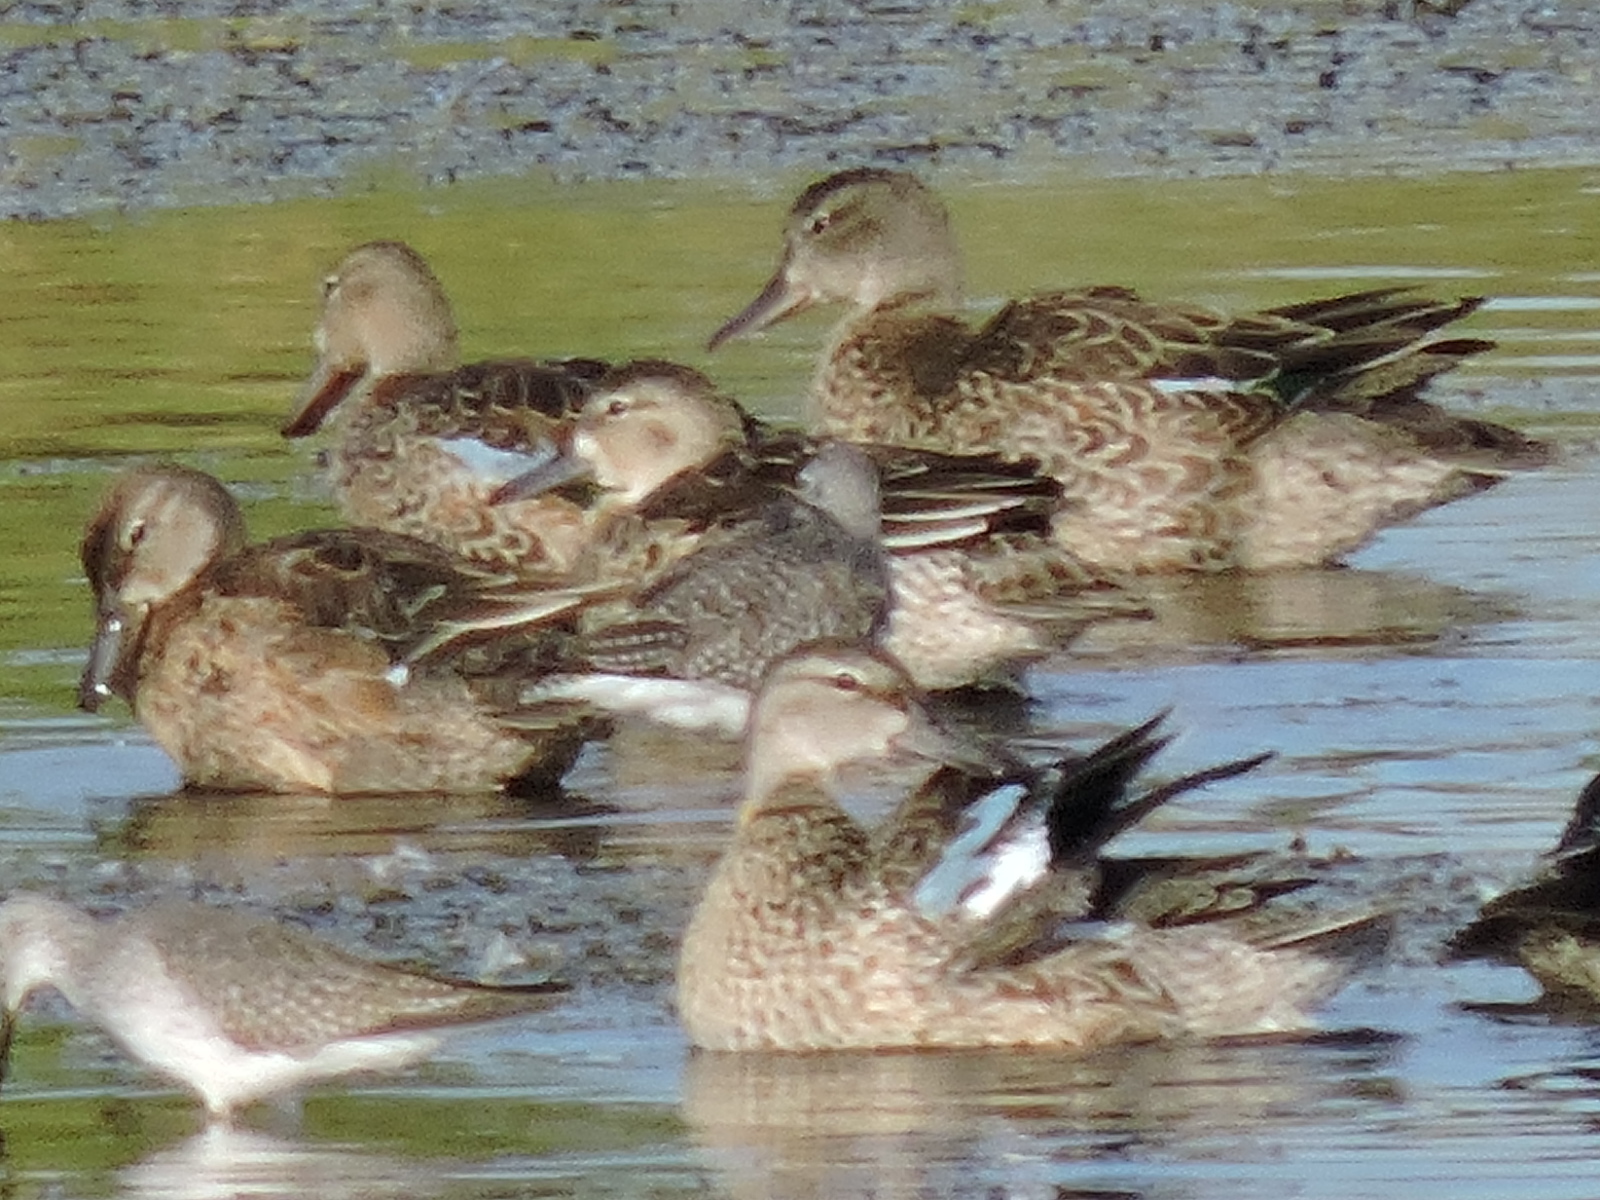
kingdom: Animalia
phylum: Chordata
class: Aves
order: Anseriformes
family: Anatidae
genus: Spatula
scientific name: Spatula discors
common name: Blue-winged teal
